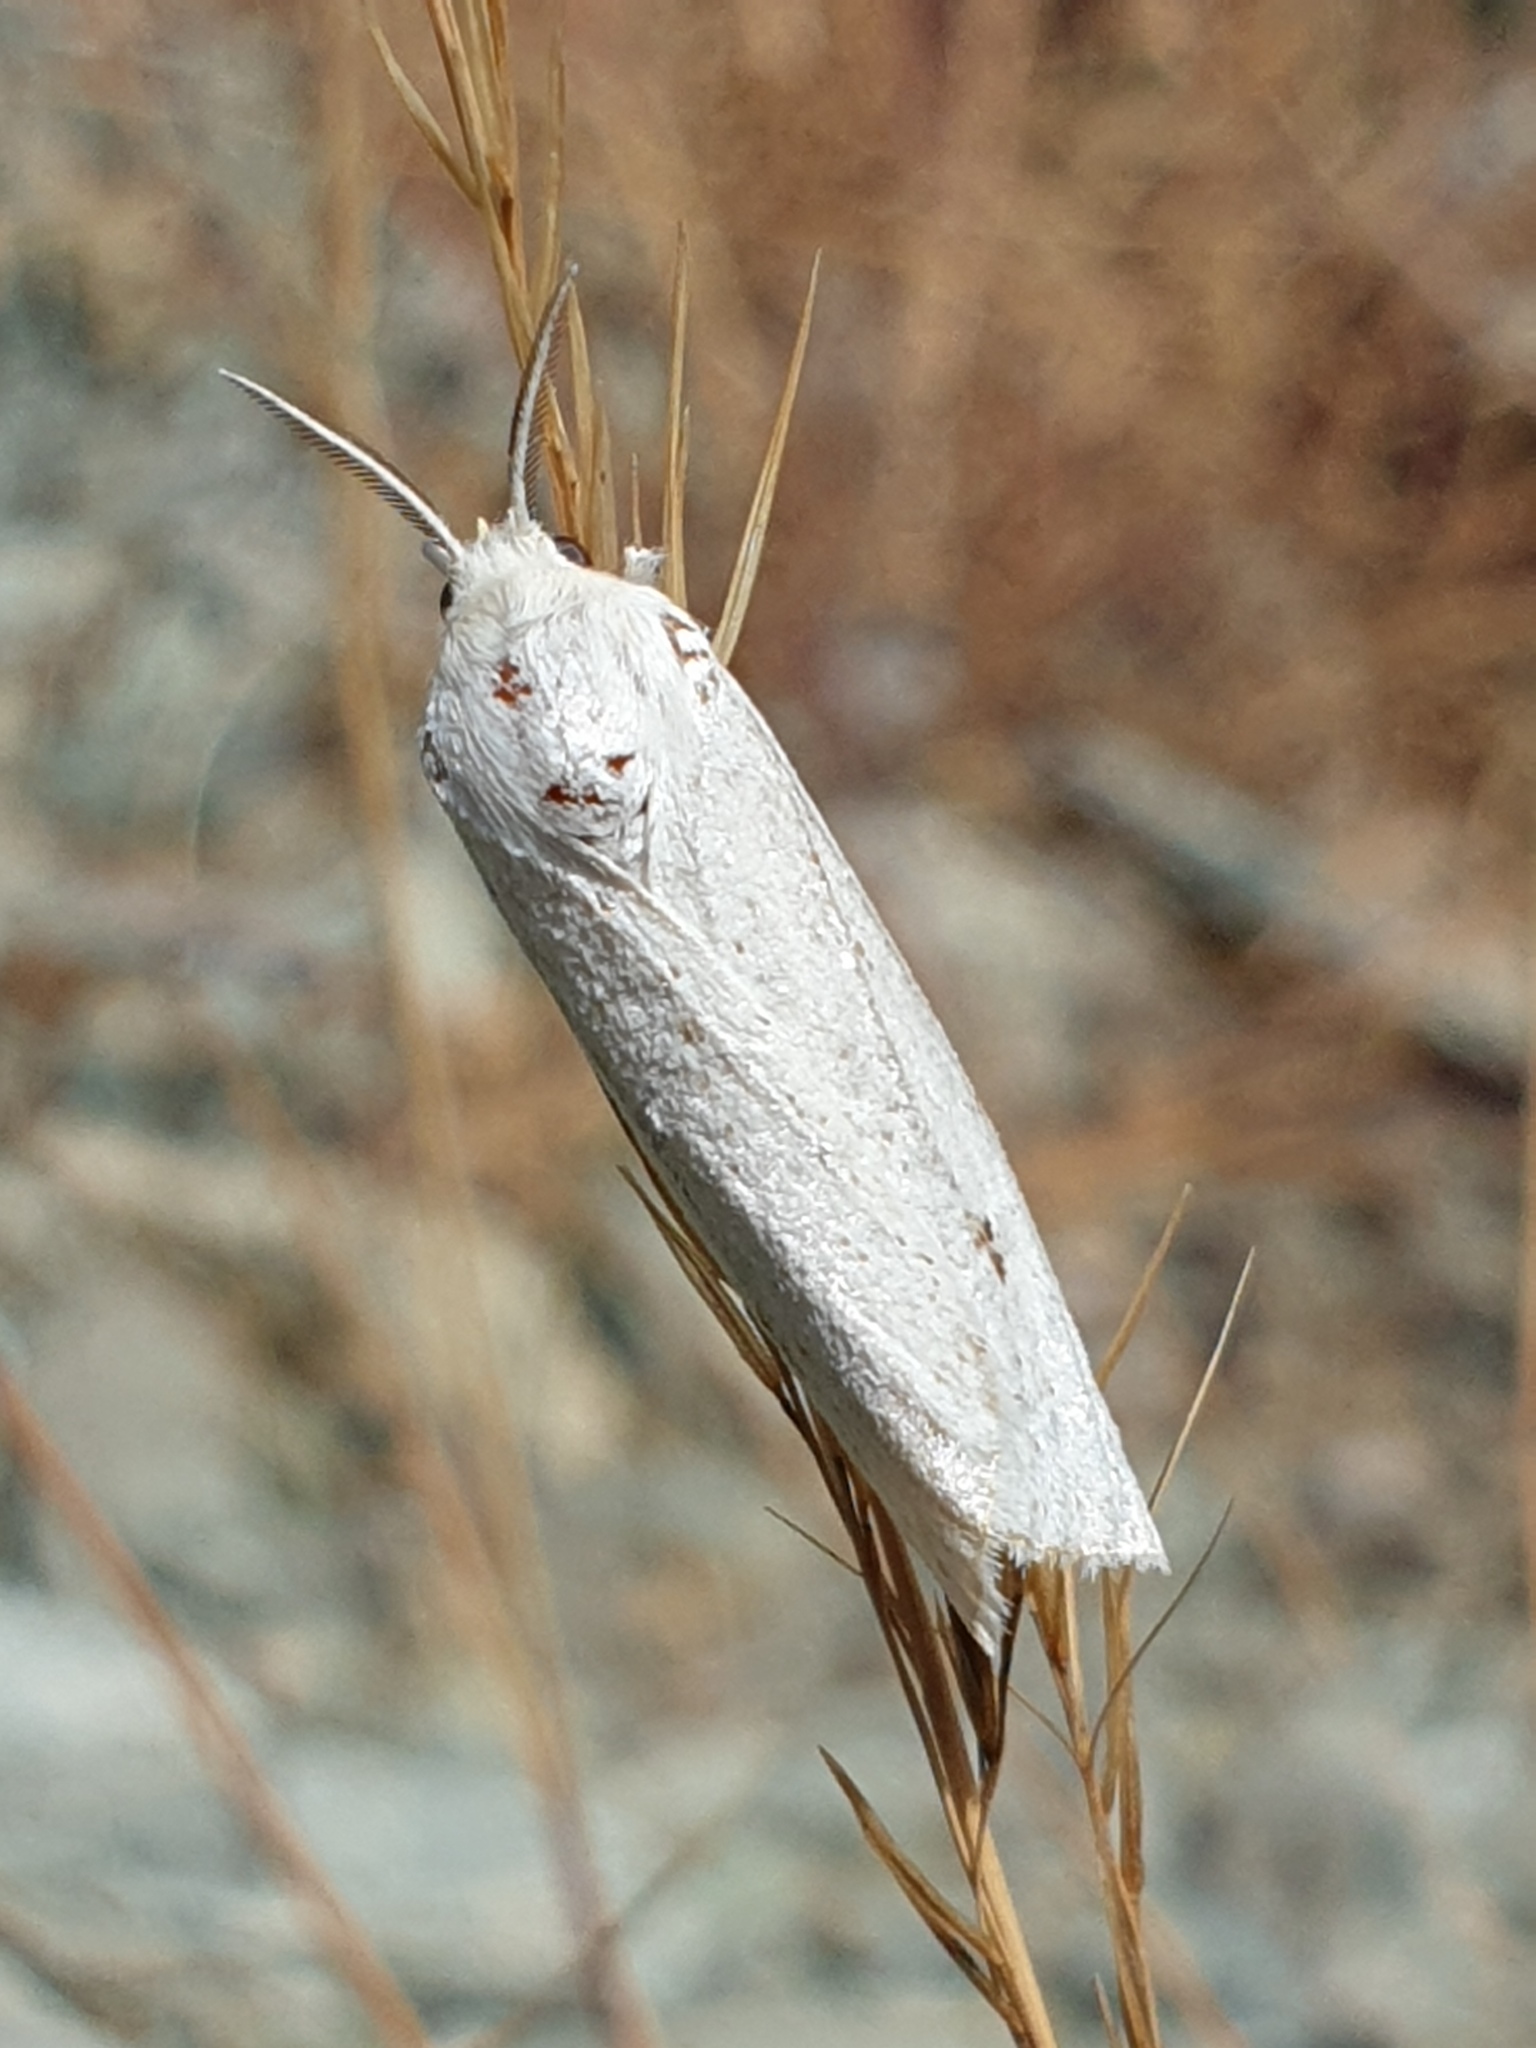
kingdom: Animalia
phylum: Arthropoda
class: Insecta
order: Lepidoptera
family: Erebidae
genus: Casama
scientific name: Casama innotata
